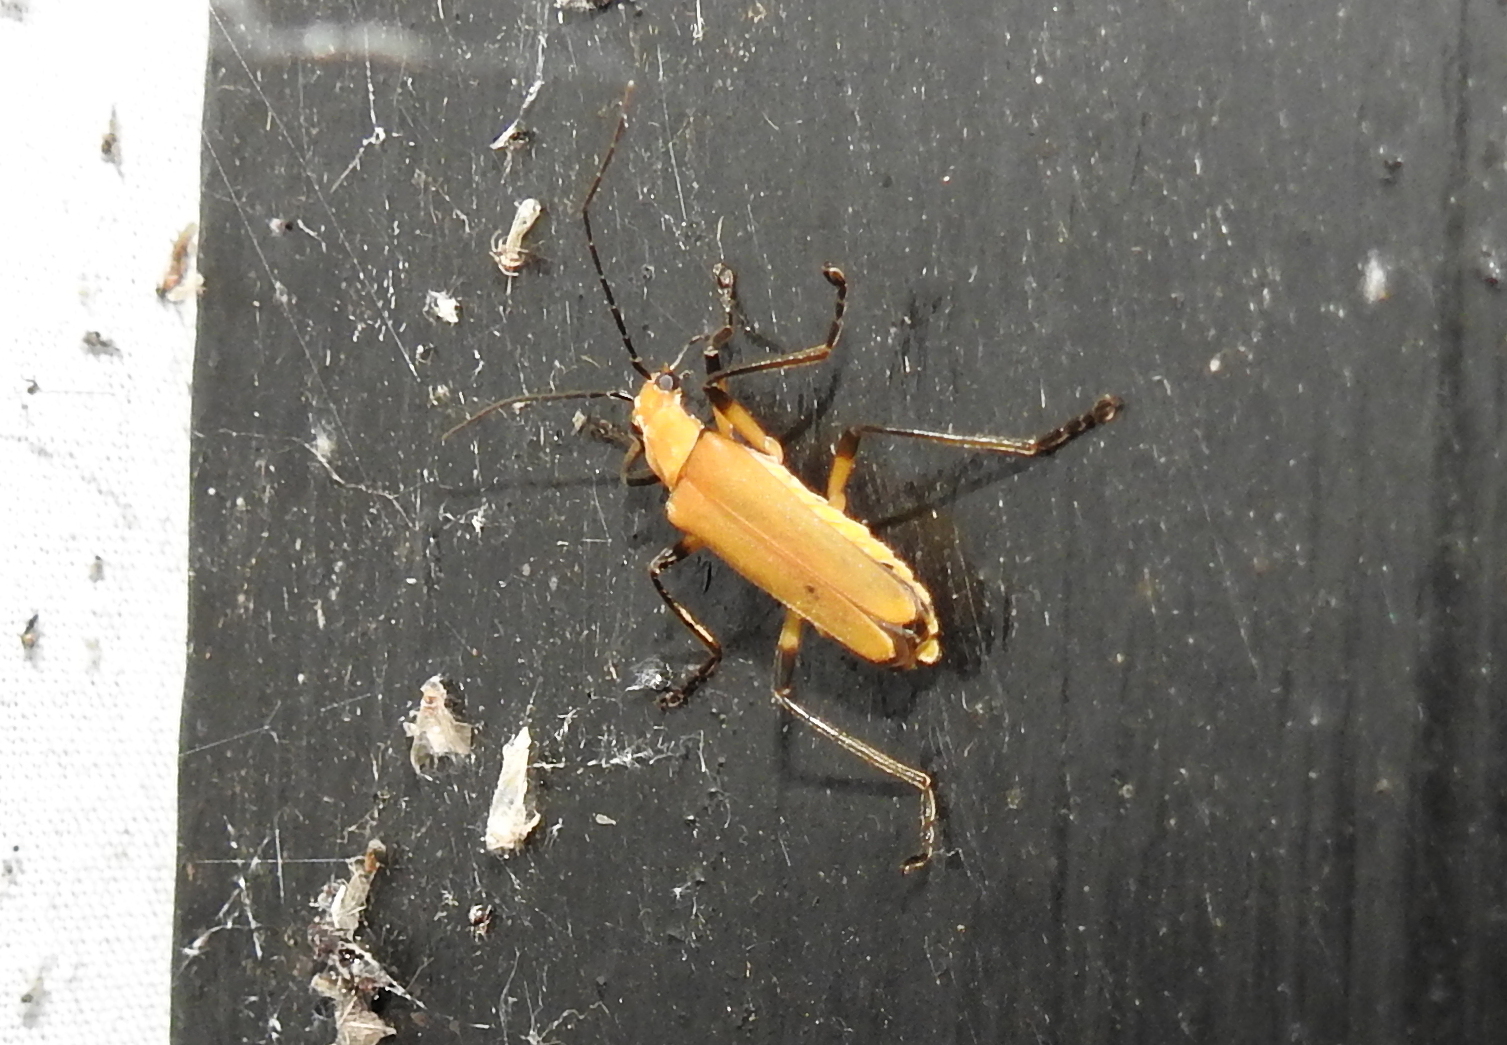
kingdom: Animalia
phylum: Arthropoda
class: Insecta
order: Coleoptera
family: Cantharidae
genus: Chauliognathus
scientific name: Chauliognathus
